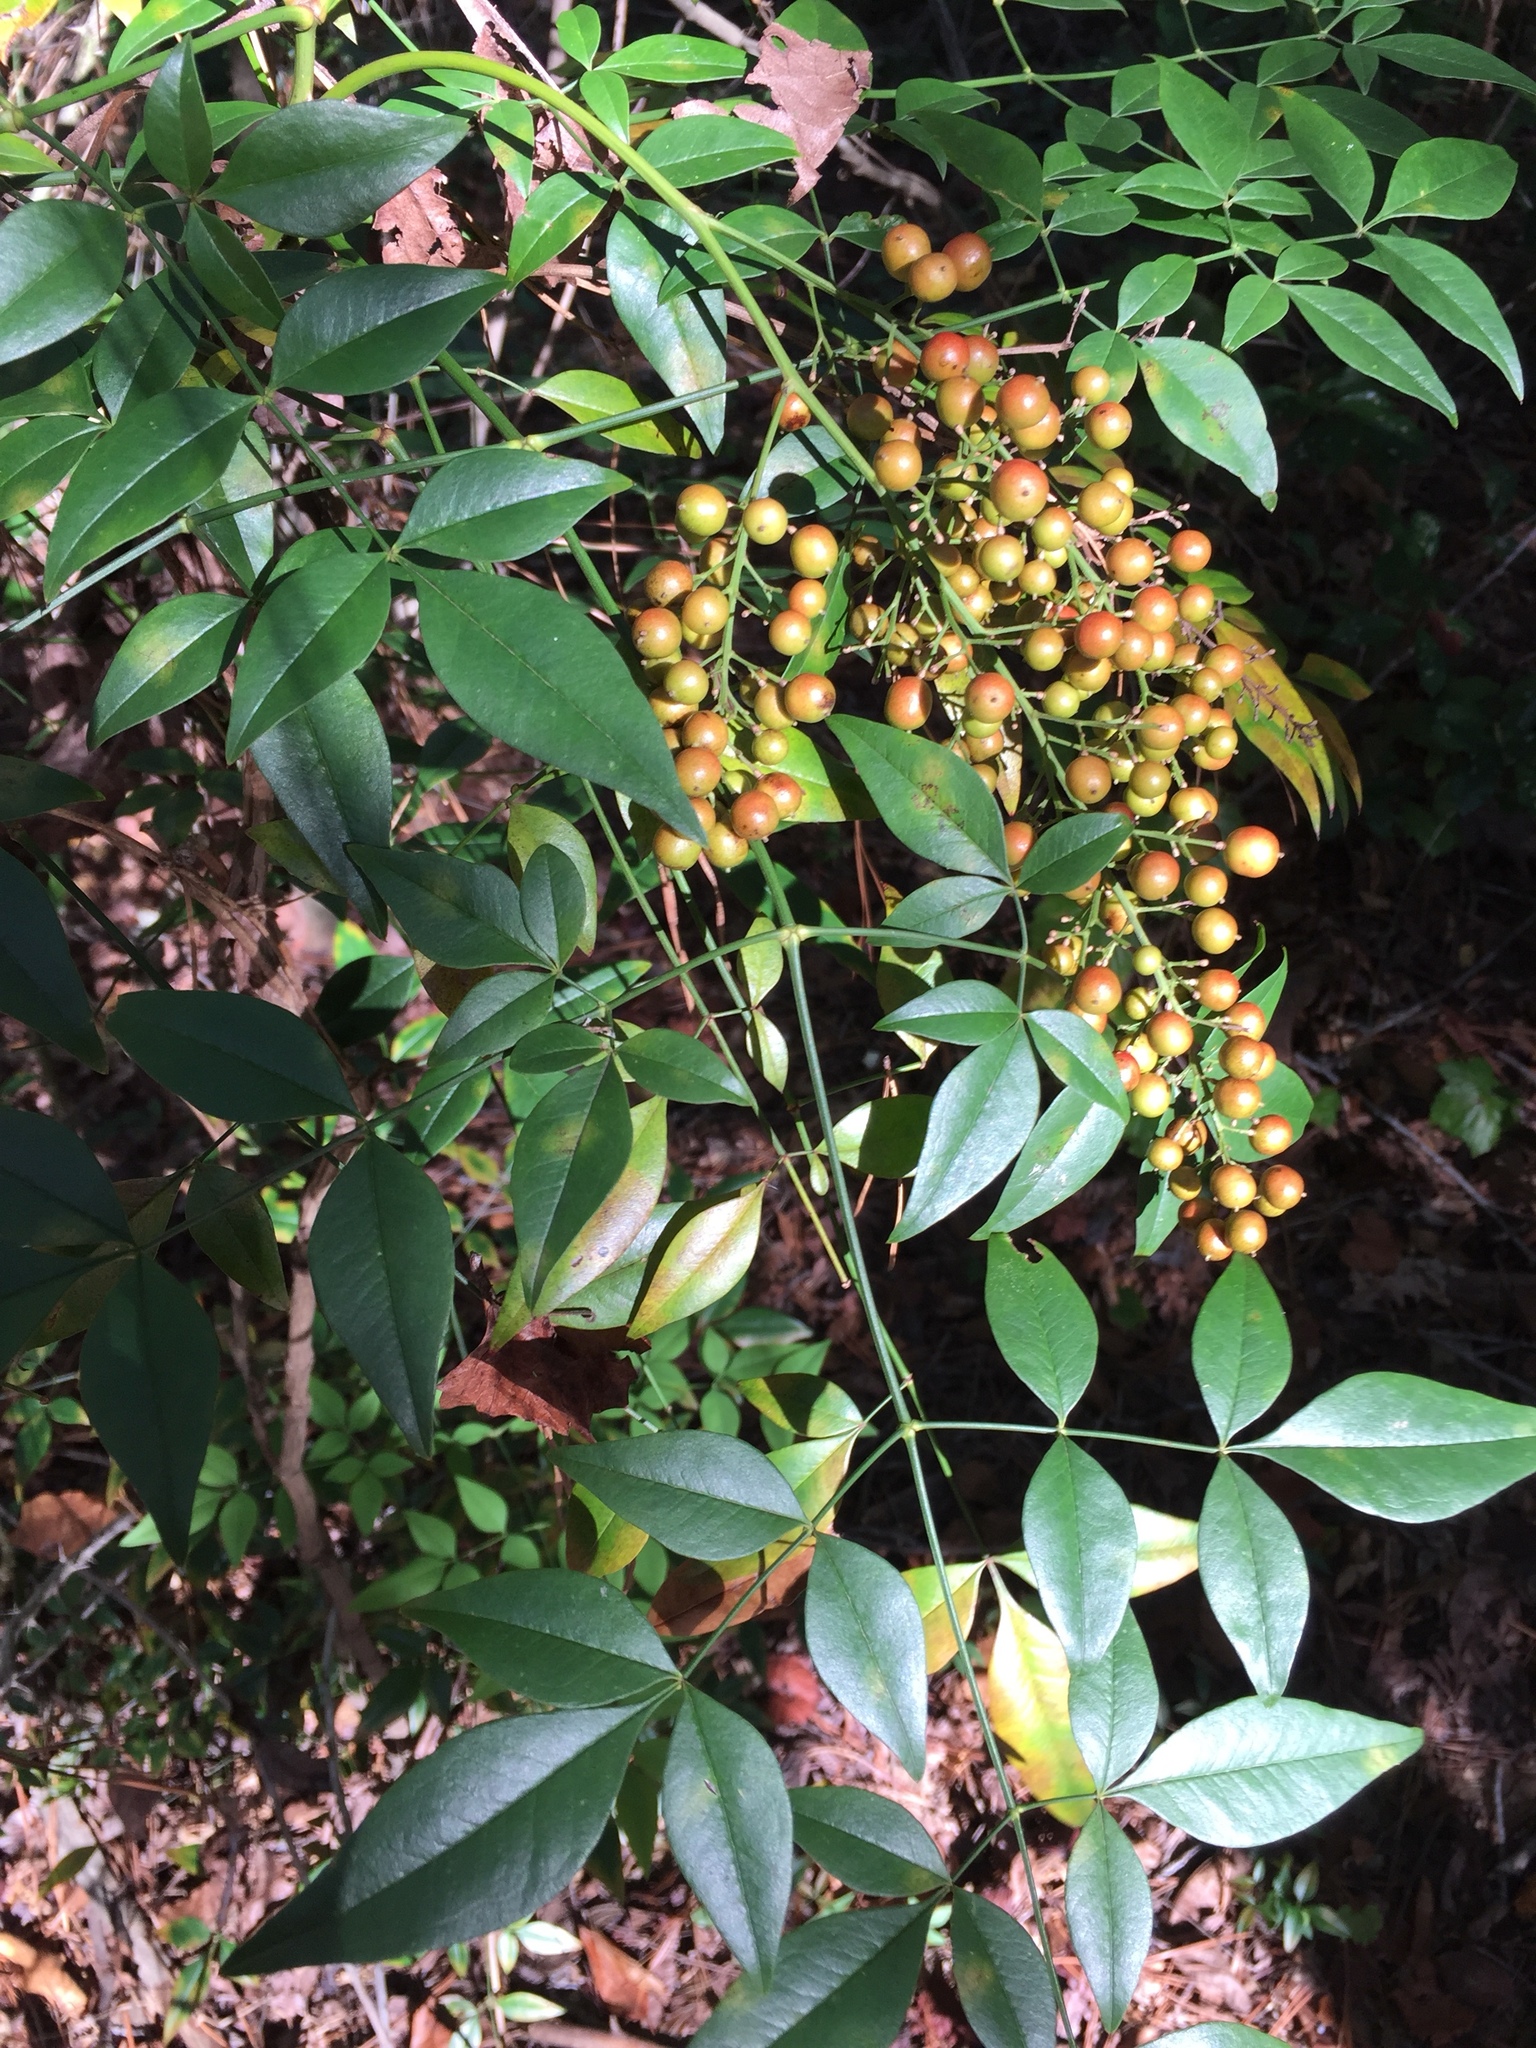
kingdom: Plantae
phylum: Tracheophyta
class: Magnoliopsida
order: Ranunculales
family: Berberidaceae
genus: Nandina
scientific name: Nandina domestica
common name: Sacred bamboo
